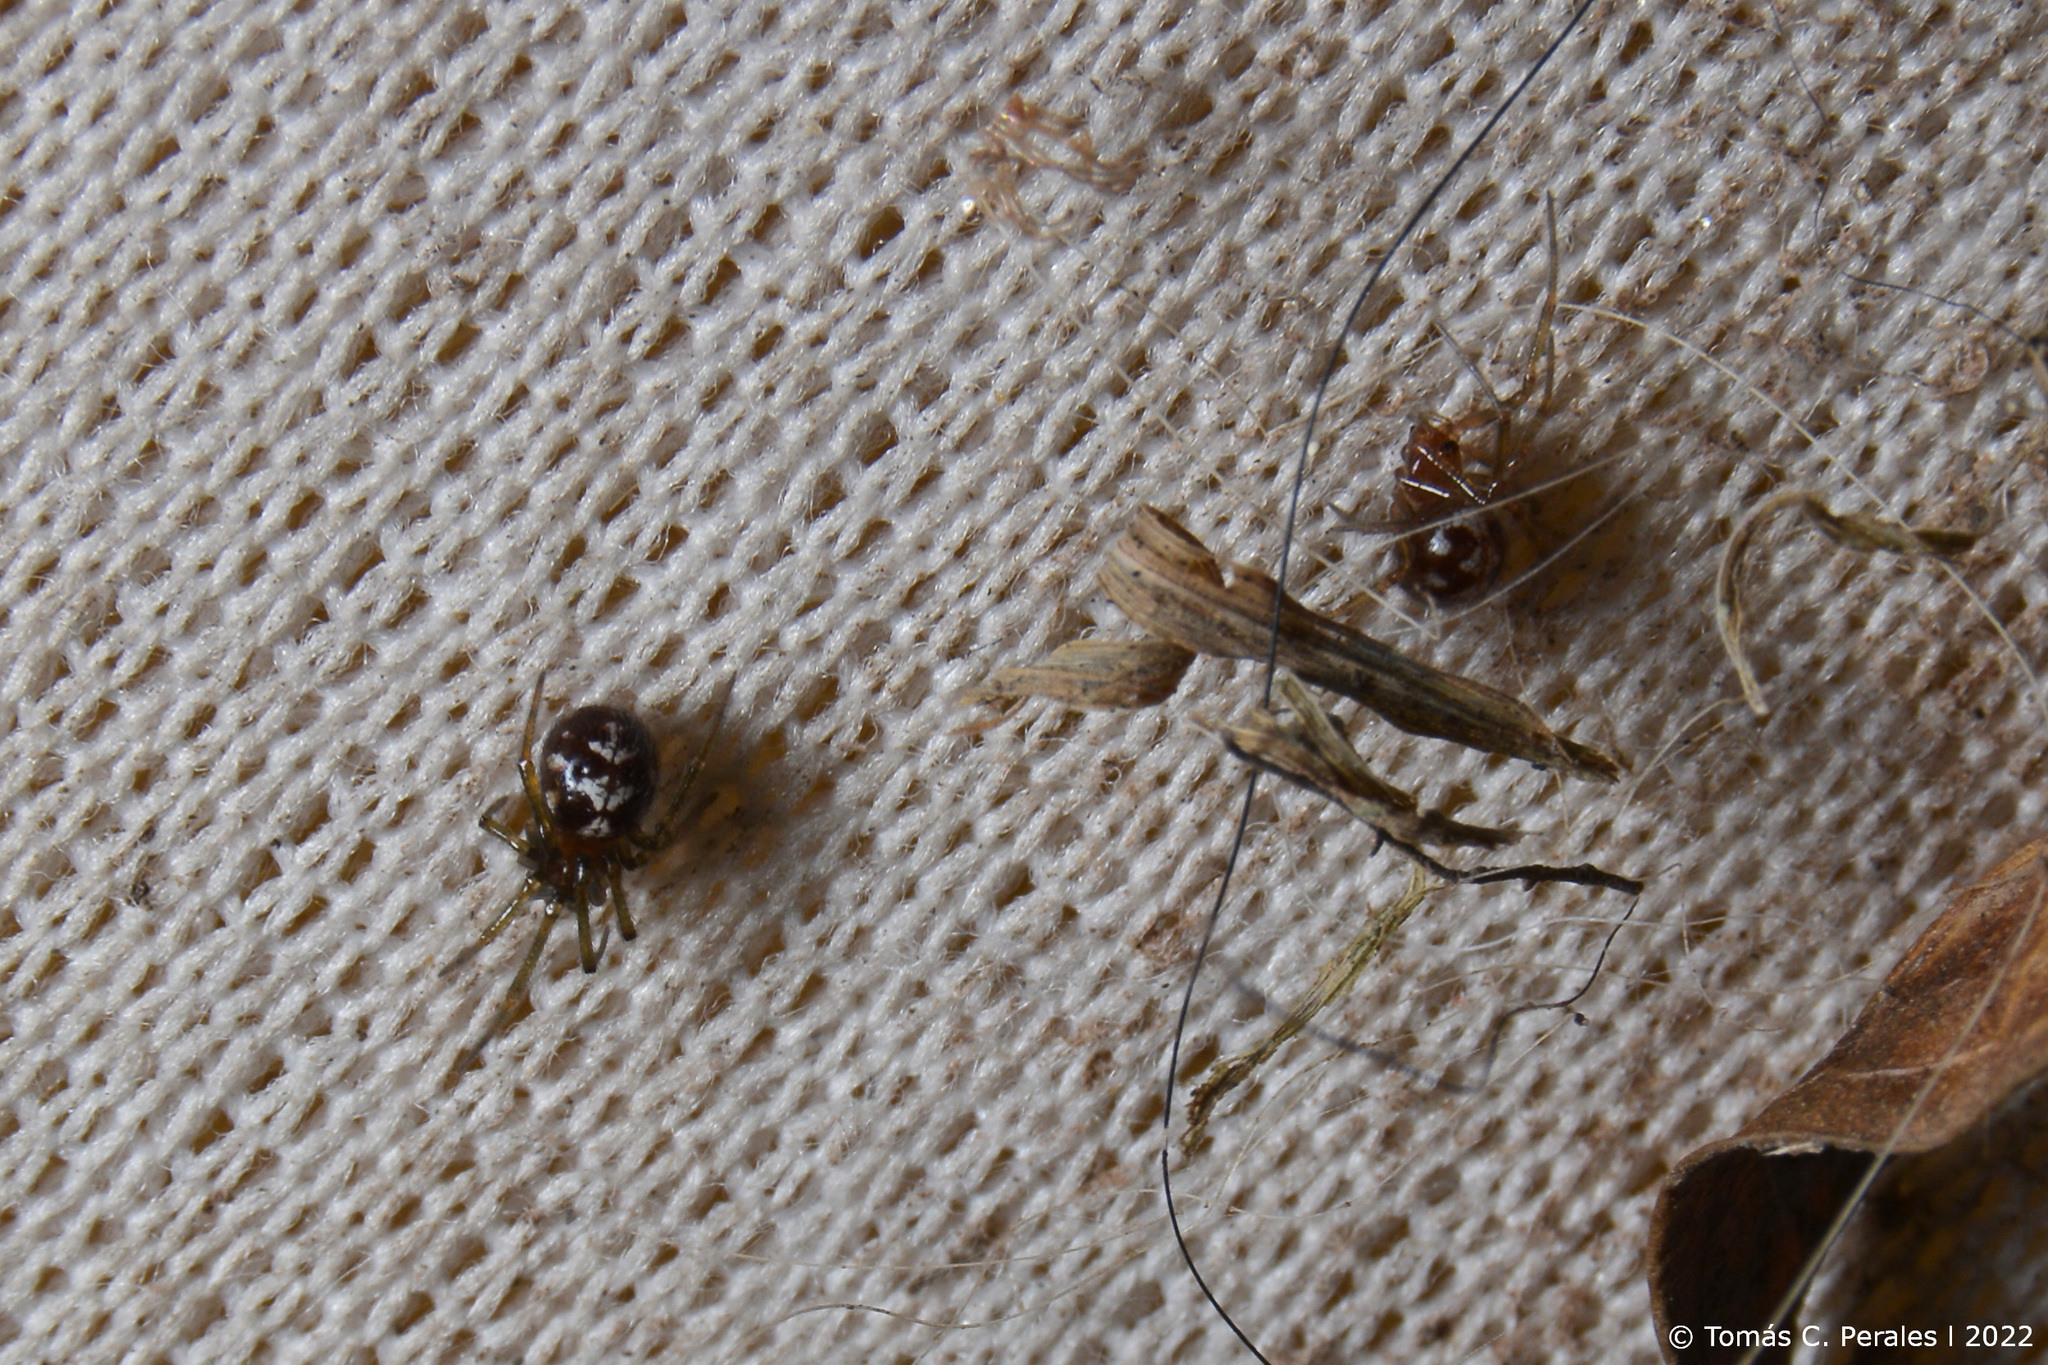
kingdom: Animalia
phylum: Arthropoda
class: Arachnida
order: Araneae
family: Theridiidae
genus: Steatoda
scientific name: Steatoda triangulosa
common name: Triangulate bud spider
